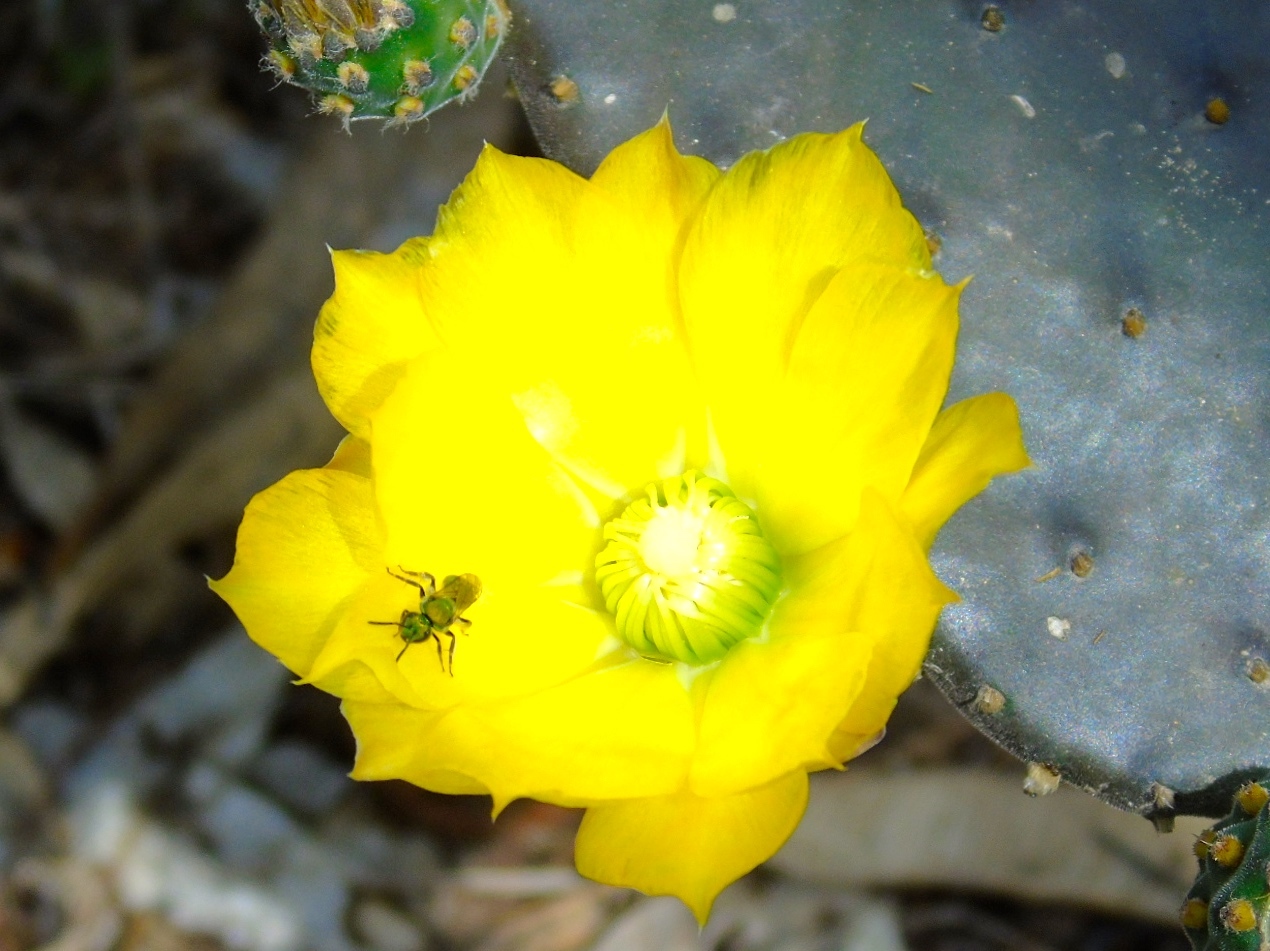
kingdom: Plantae
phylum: Tracheophyta
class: Magnoliopsida
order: Caryophyllales
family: Cactaceae
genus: Opuntia
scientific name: Opuntia decumbens
